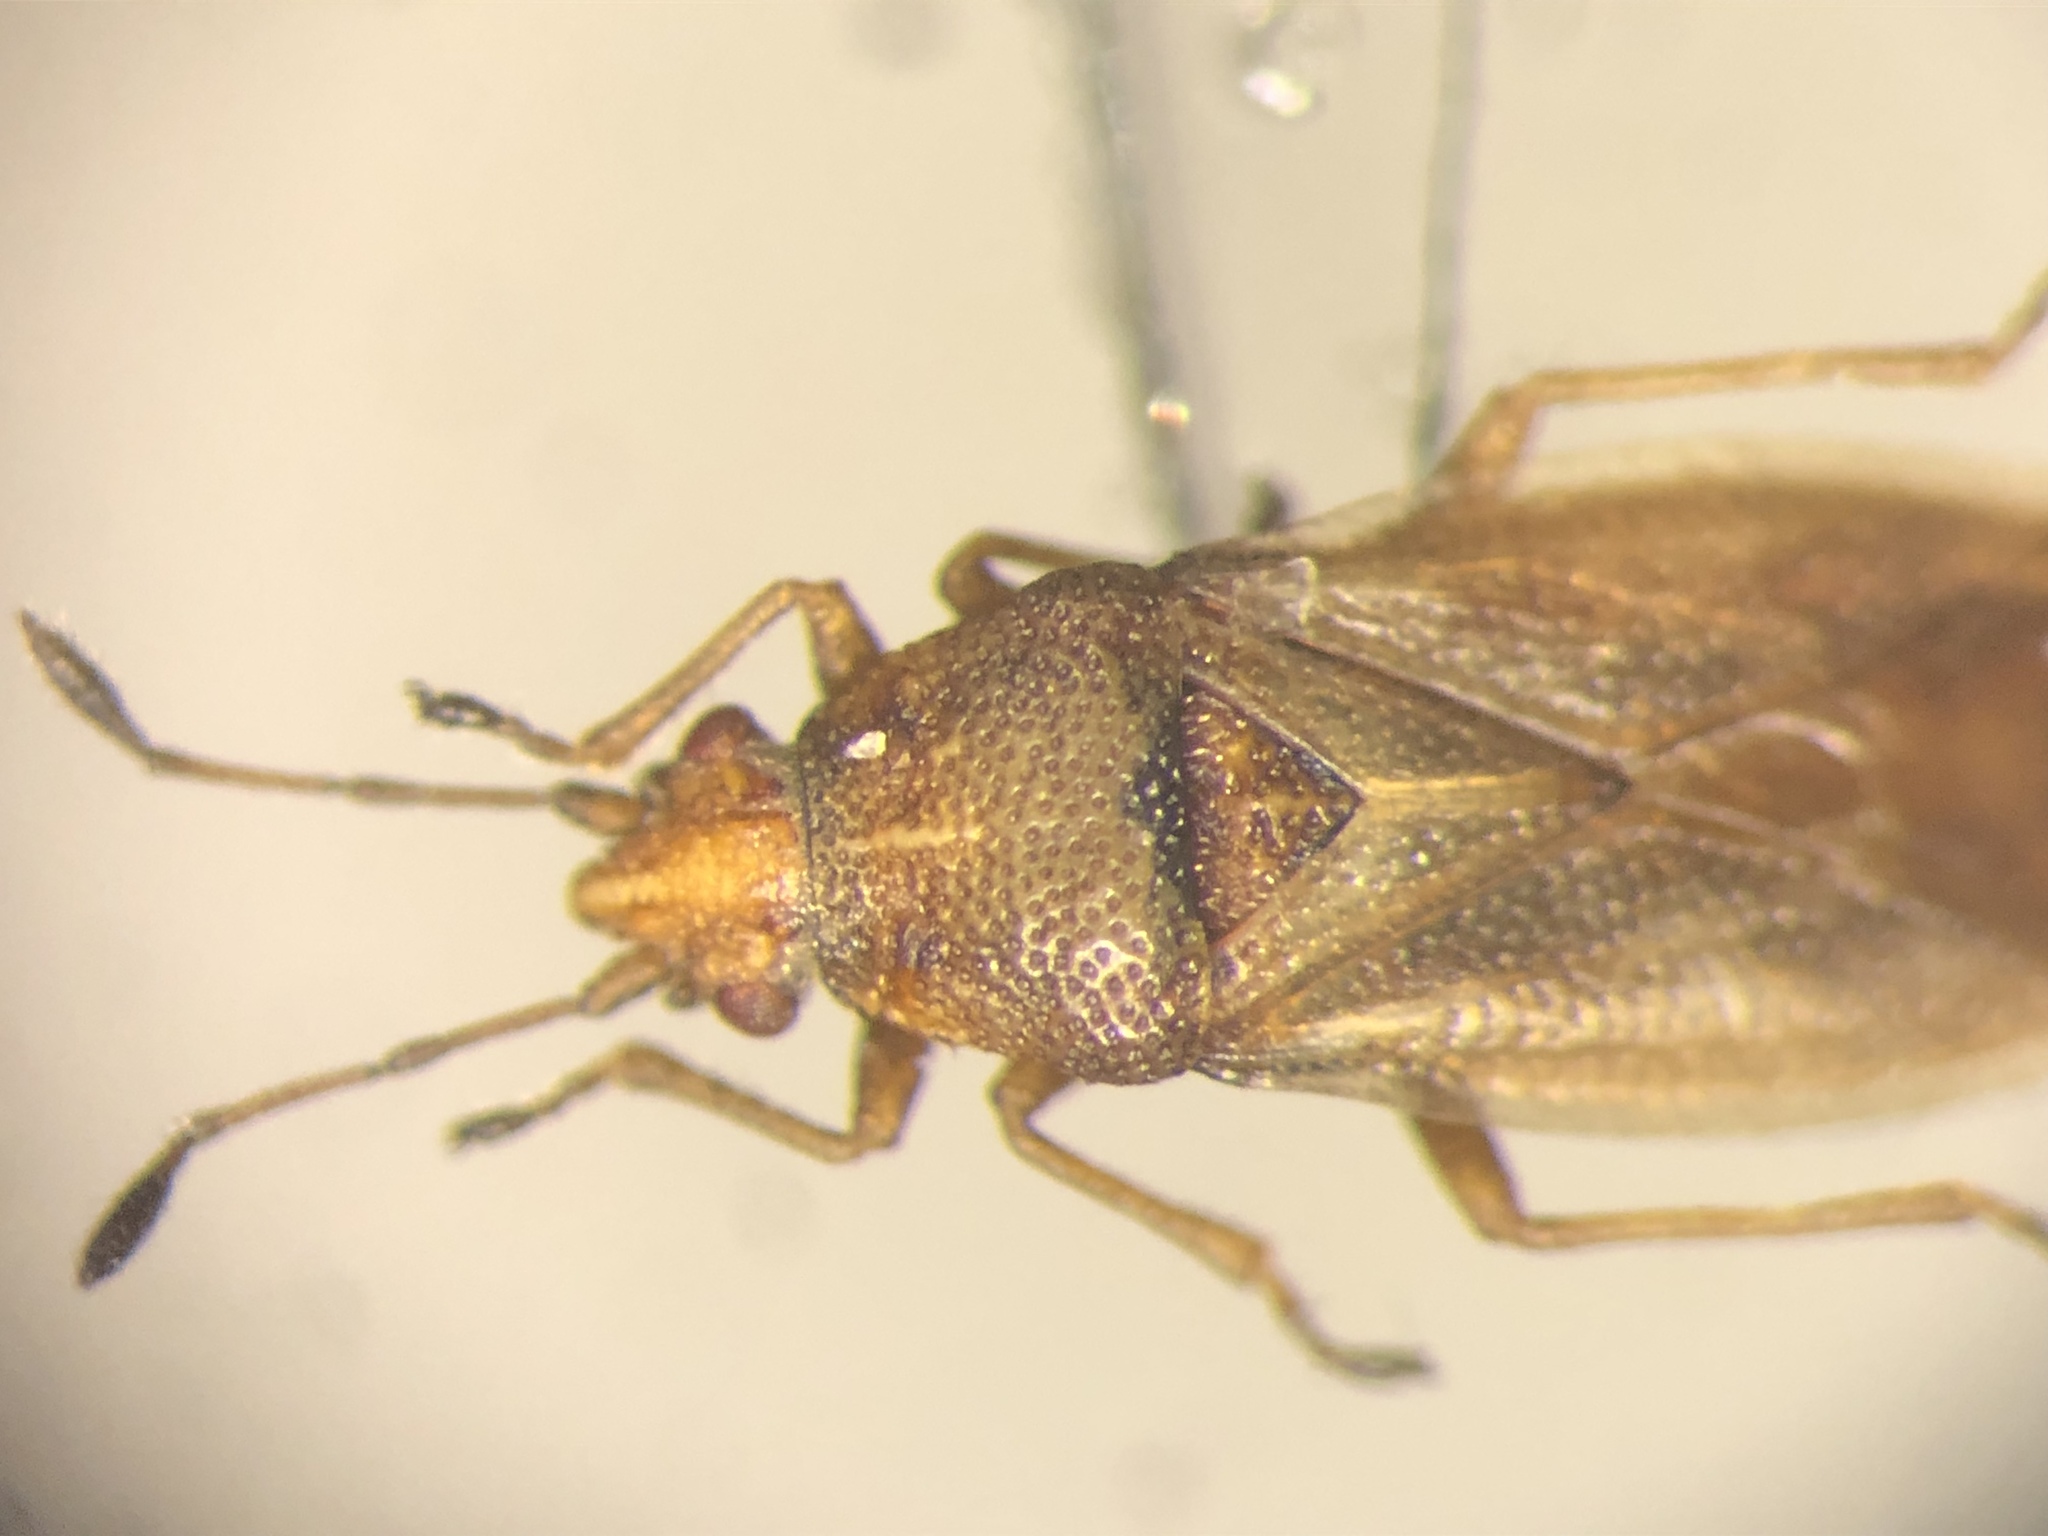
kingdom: Animalia
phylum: Arthropoda
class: Insecta
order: Hemiptera
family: Cymidae
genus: Cymus
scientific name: Cymus discors
